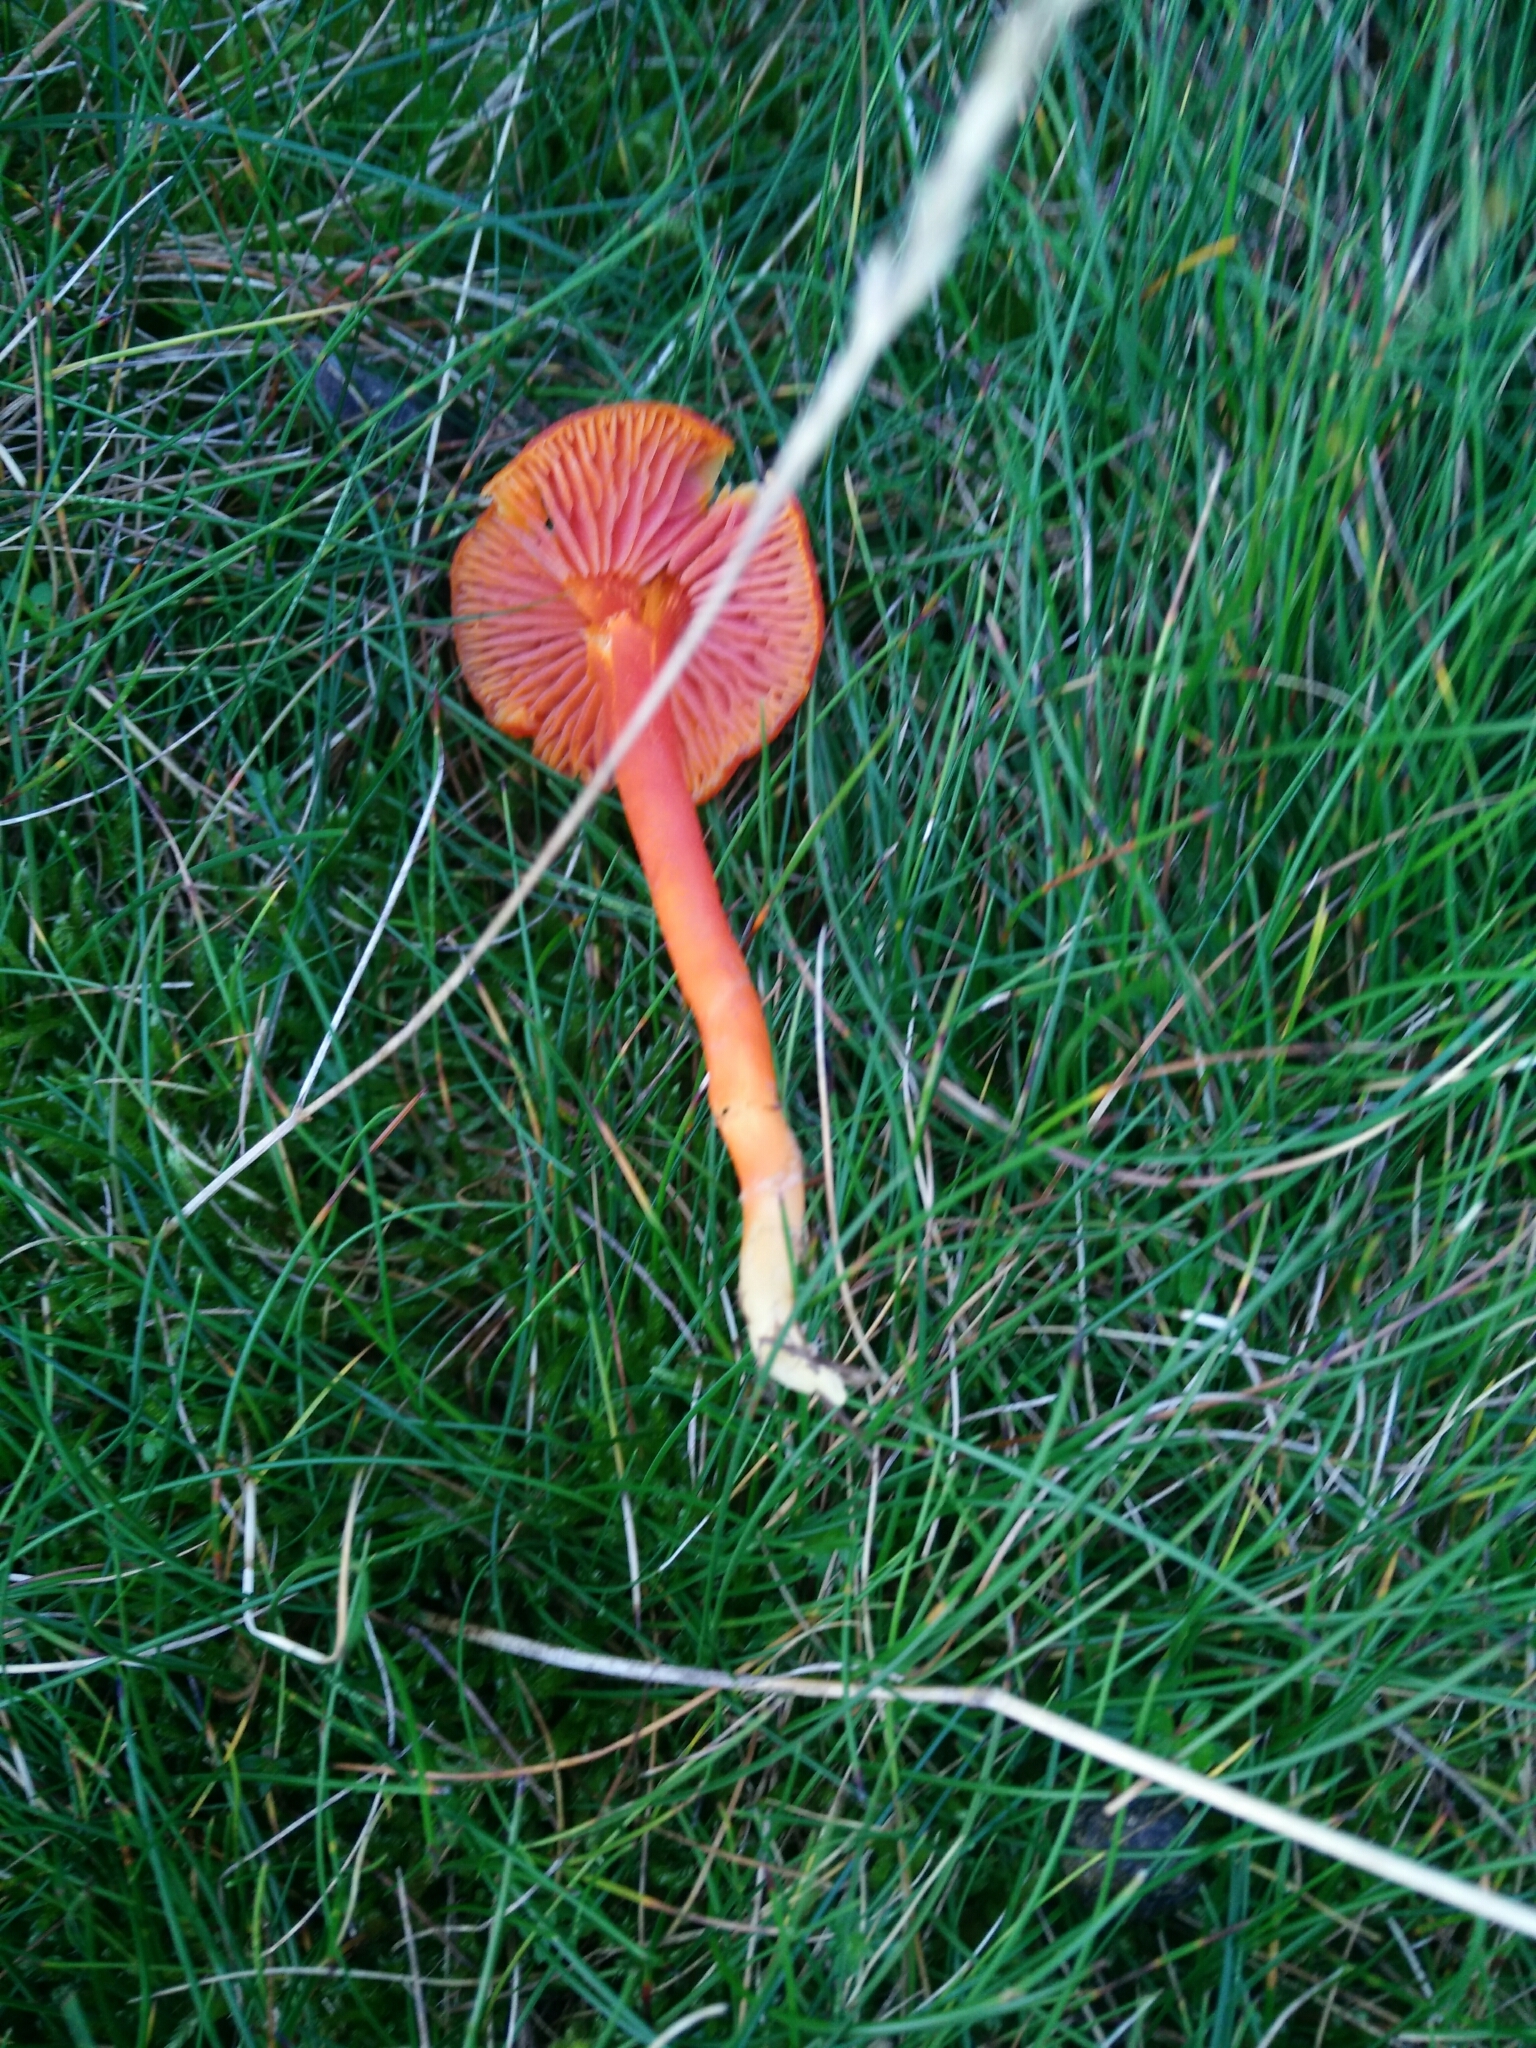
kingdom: Fungi
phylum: Basidiomycota
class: Agaricomycetes
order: Agaricales
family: Hygrophoraceae
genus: Hygrocybe
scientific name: Hygrocybe
